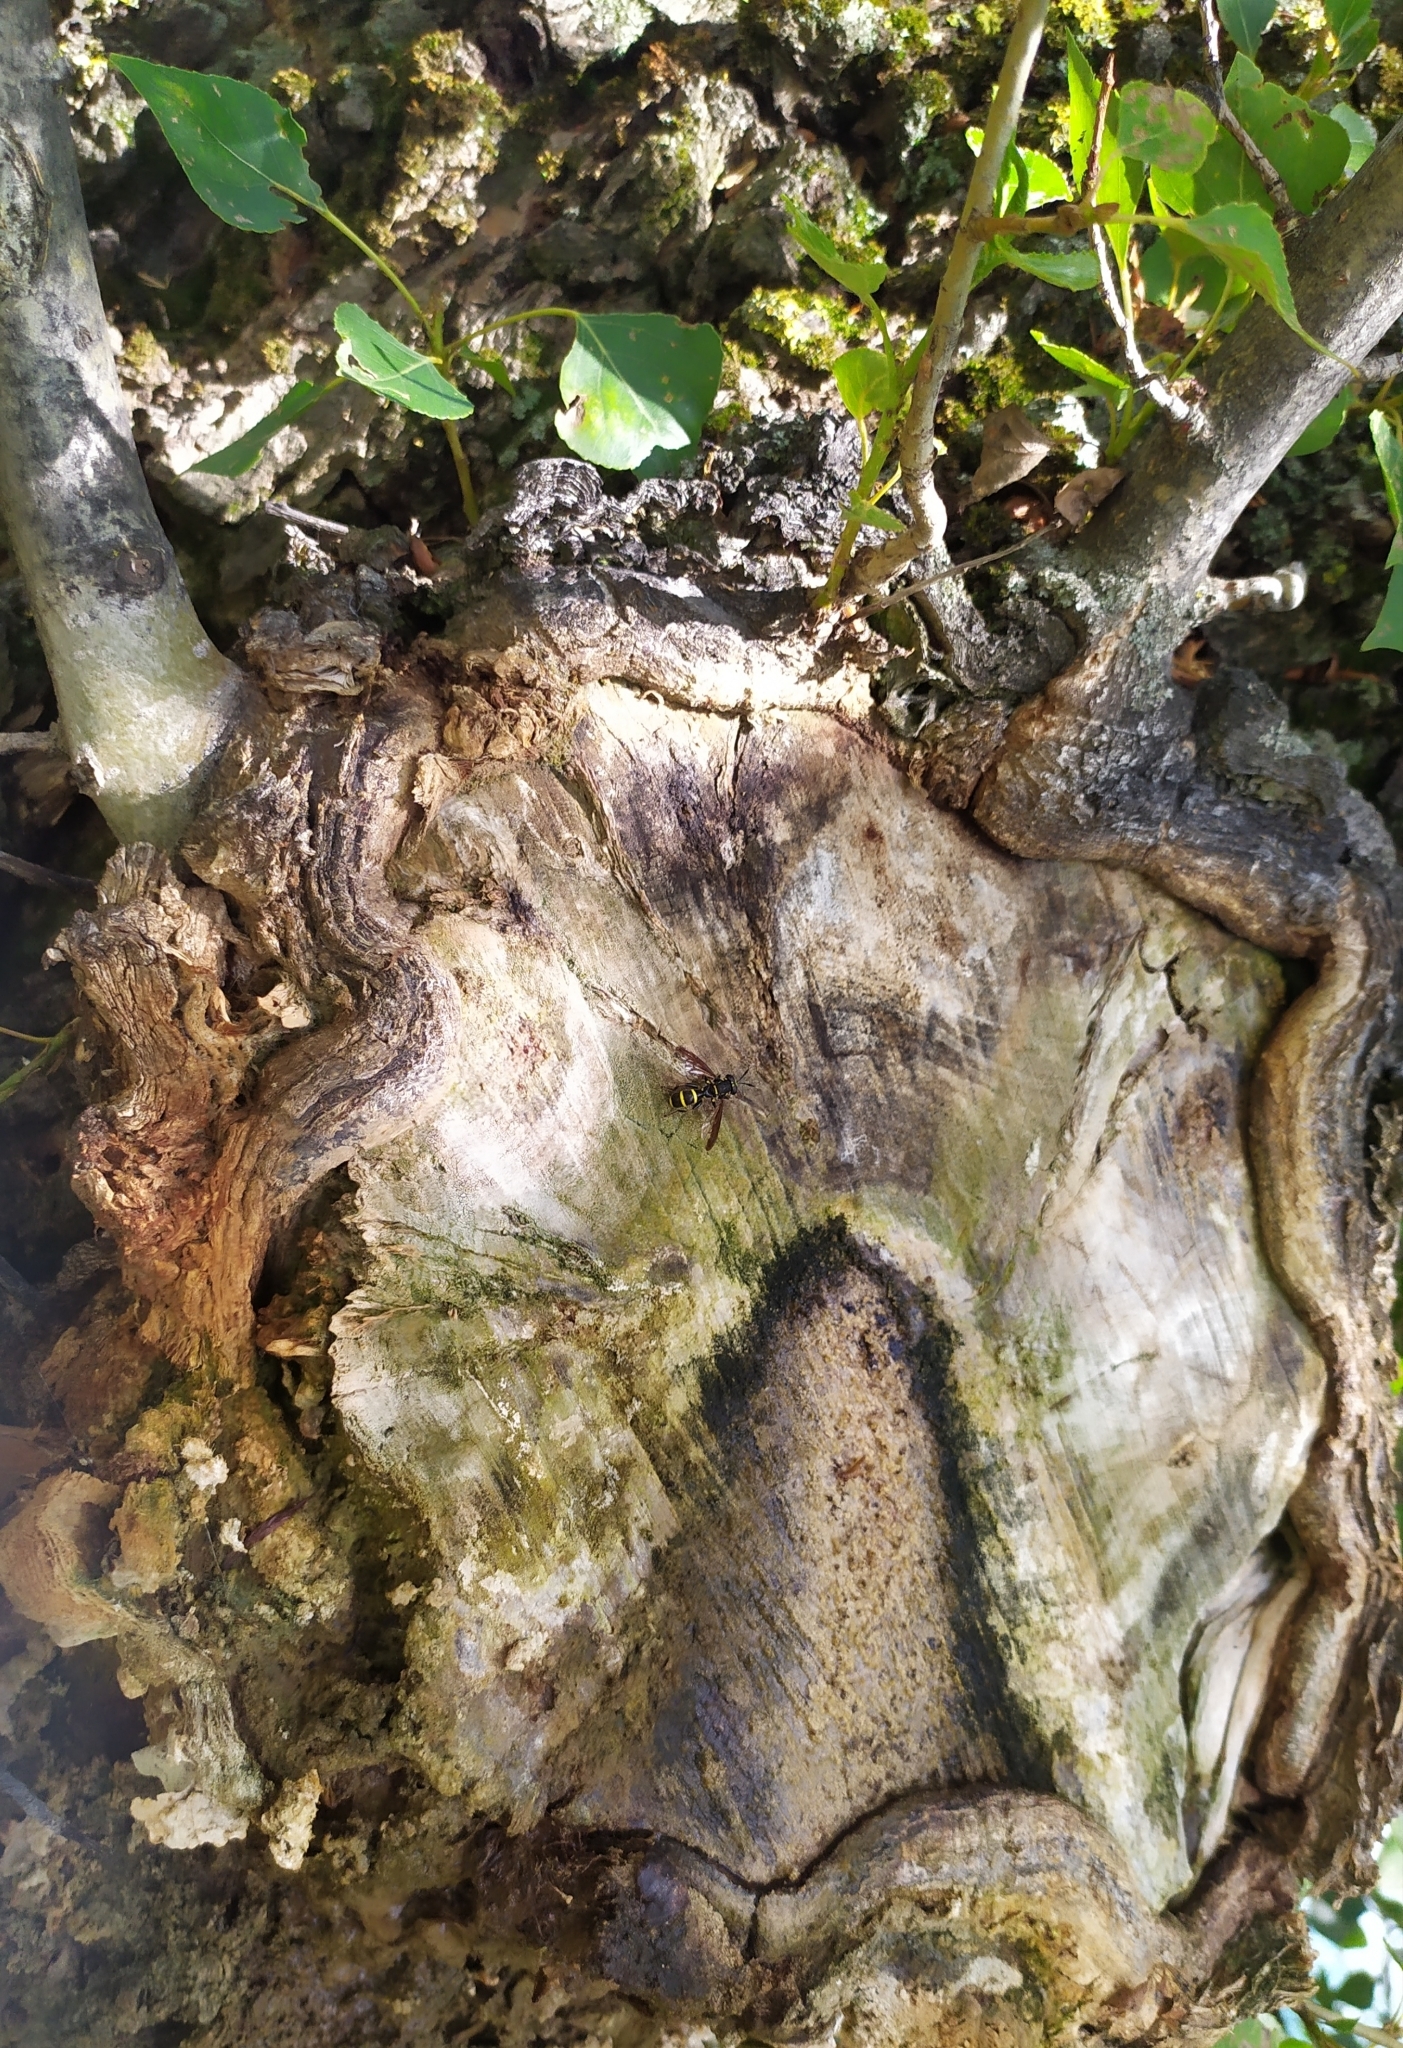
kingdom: Animalia
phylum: Arthropoda
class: Insecta
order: Diptera
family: Syrphidae
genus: Sphiximorpha
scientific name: Sphiximorpha subsessilis
